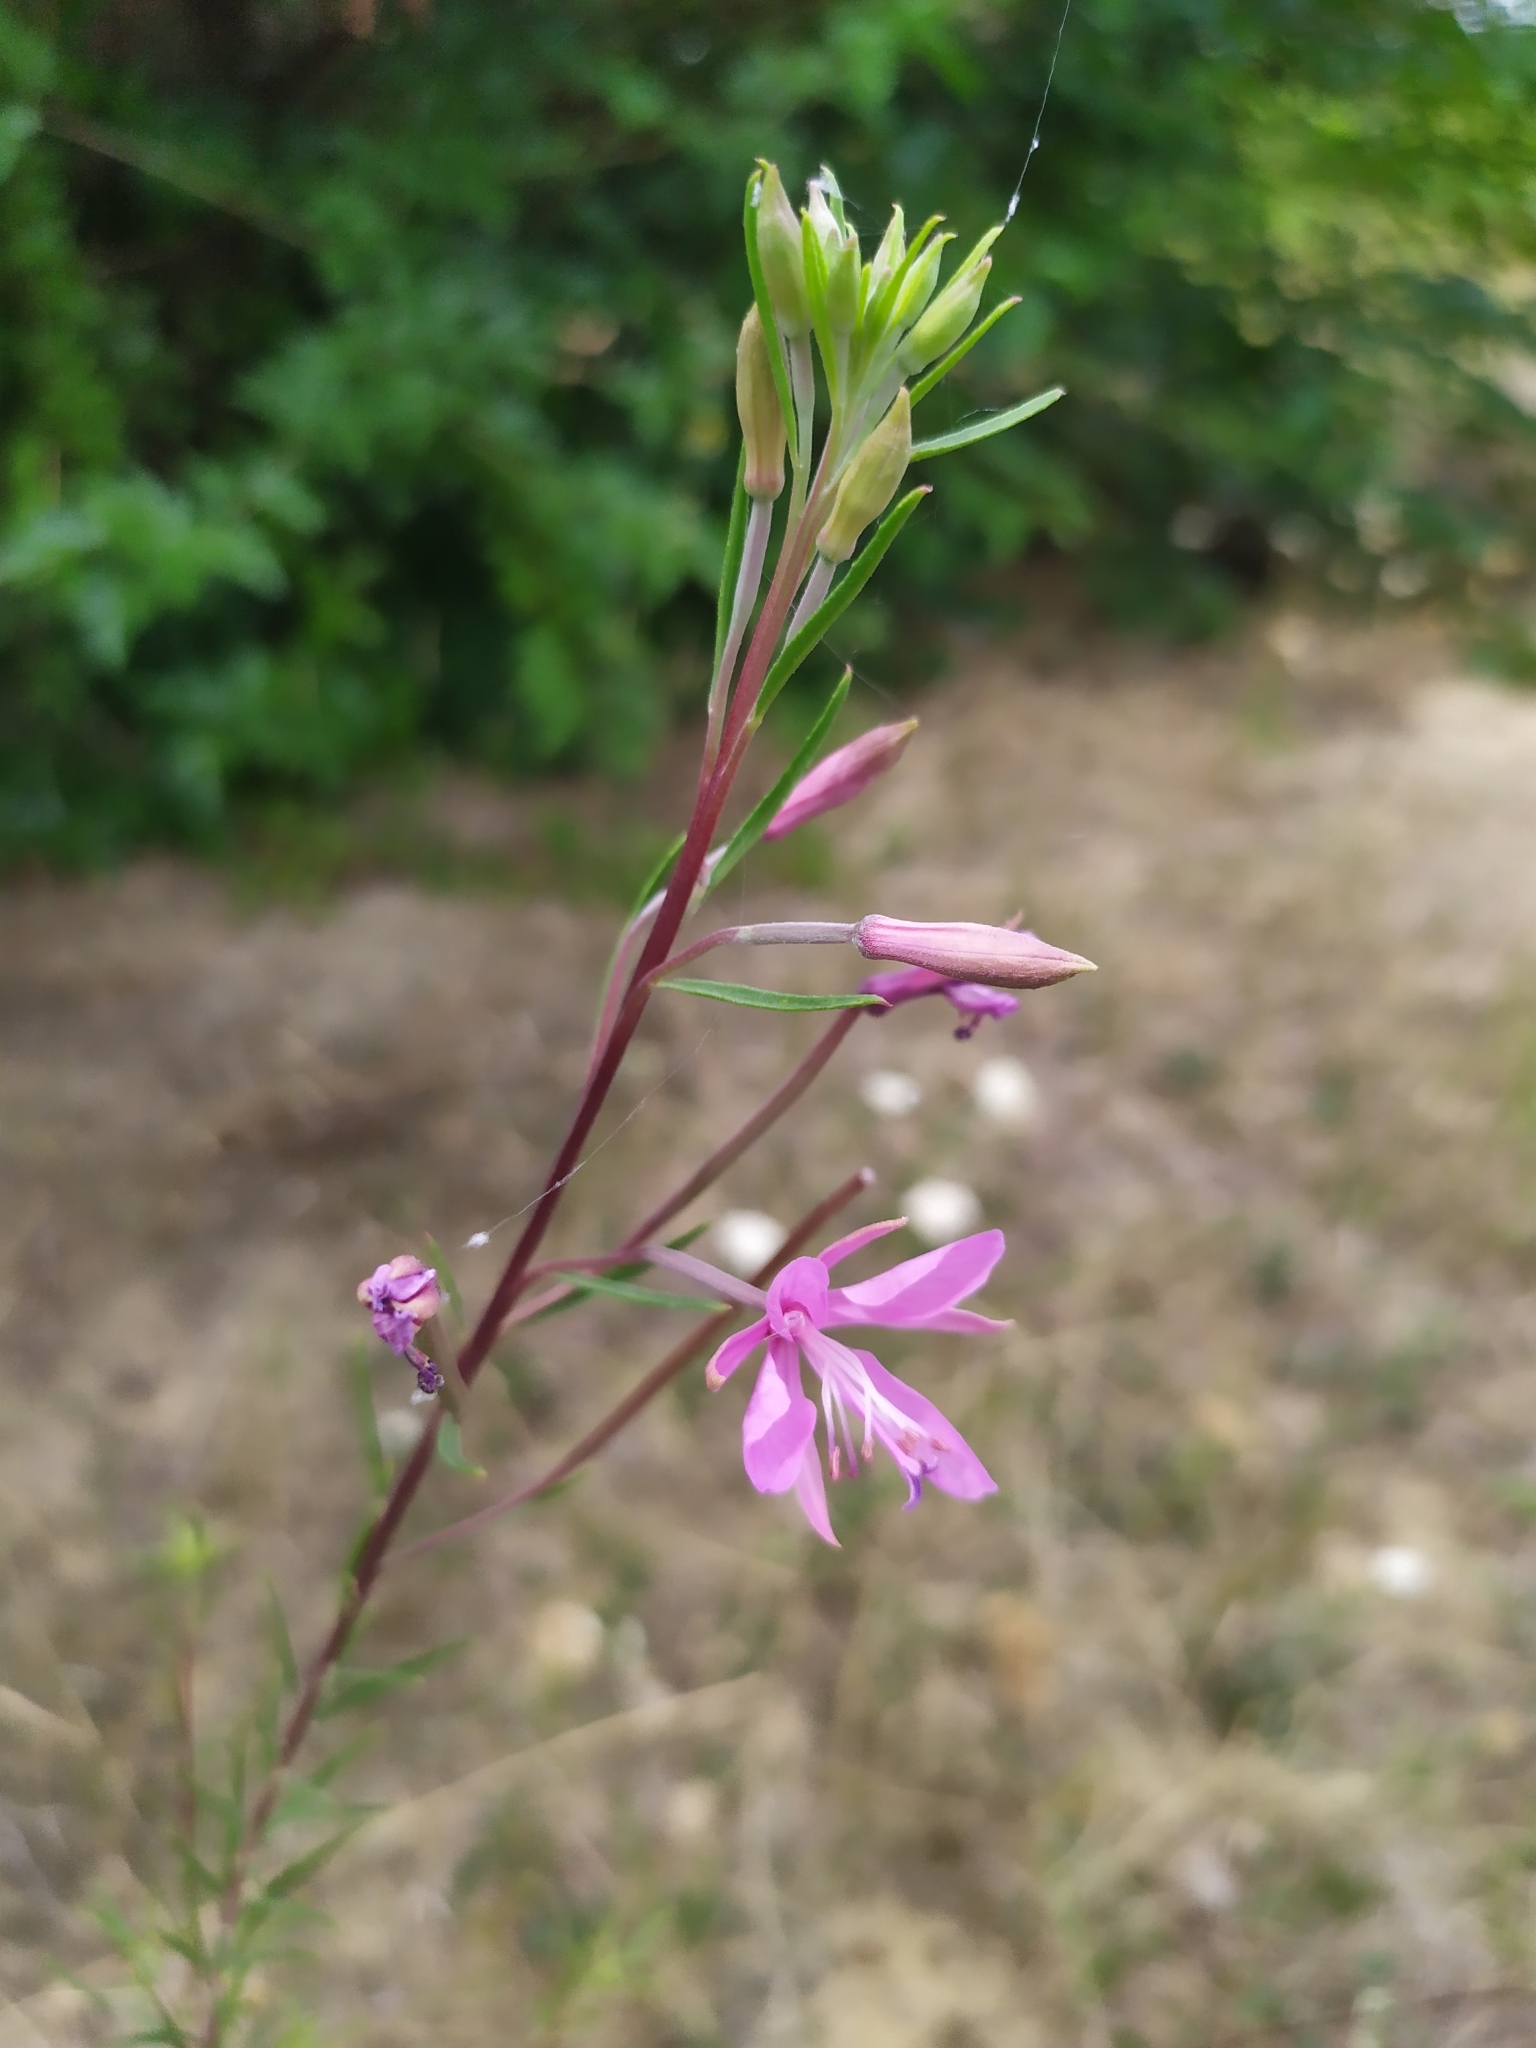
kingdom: Plantae
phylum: Tracheophyta
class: Magnoliopsida
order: Myrtales
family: Onagraceae
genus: Chamaenerion
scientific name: Chamaenerion dodonaei
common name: Rosemary-leaved willowherb
